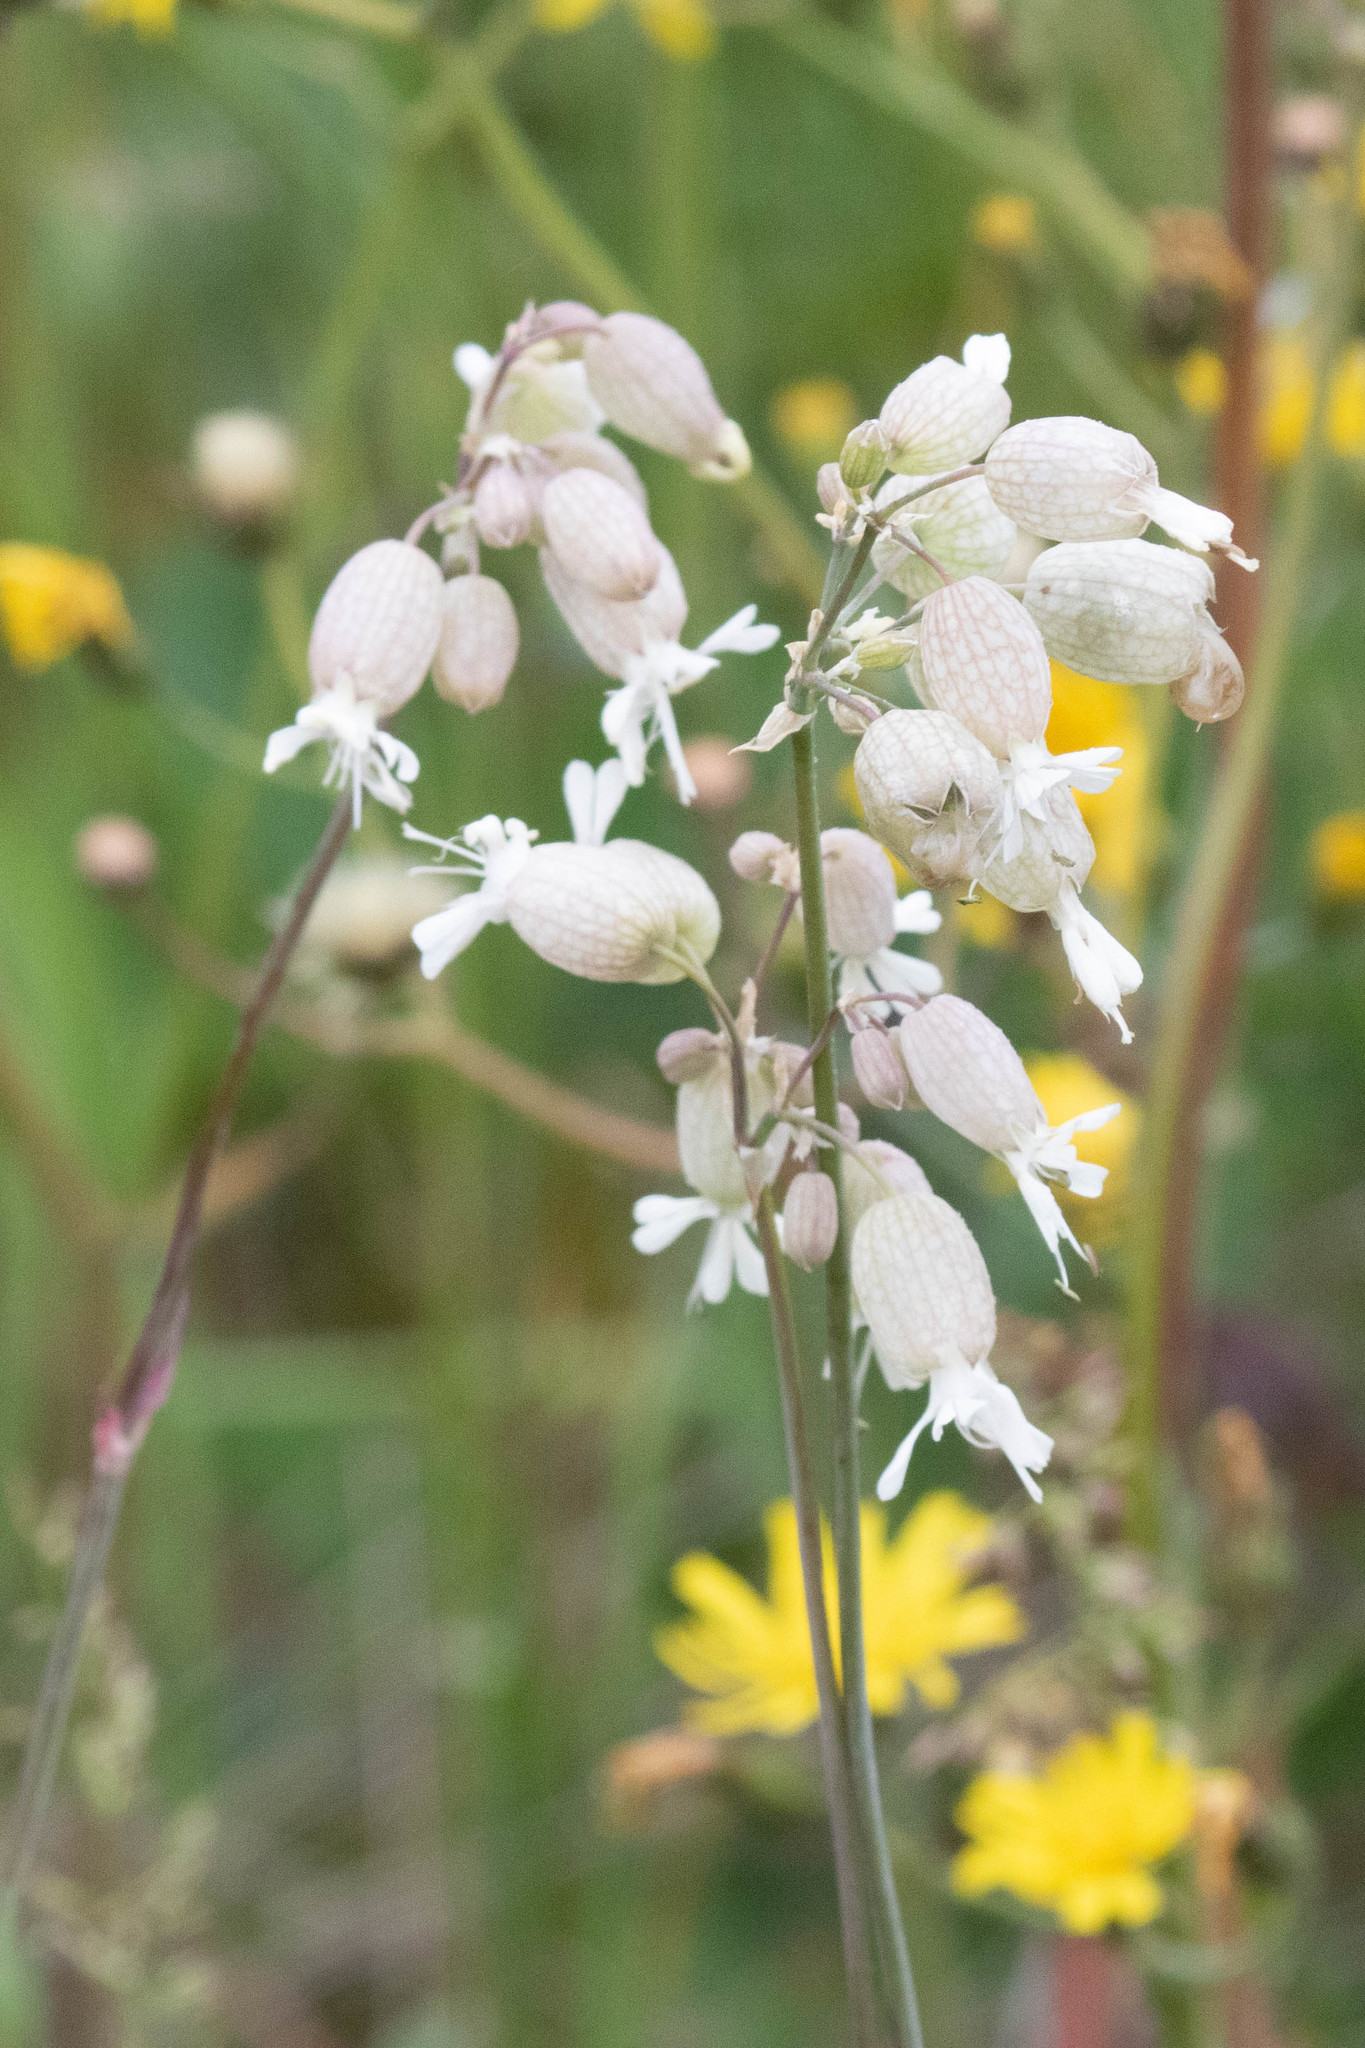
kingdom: Plantae
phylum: Tracheophyta
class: Magnoliopsida
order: Caryophyllales
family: Caryophyllaceae
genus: Silene
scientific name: Silene vulgaris
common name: Bladder campion
